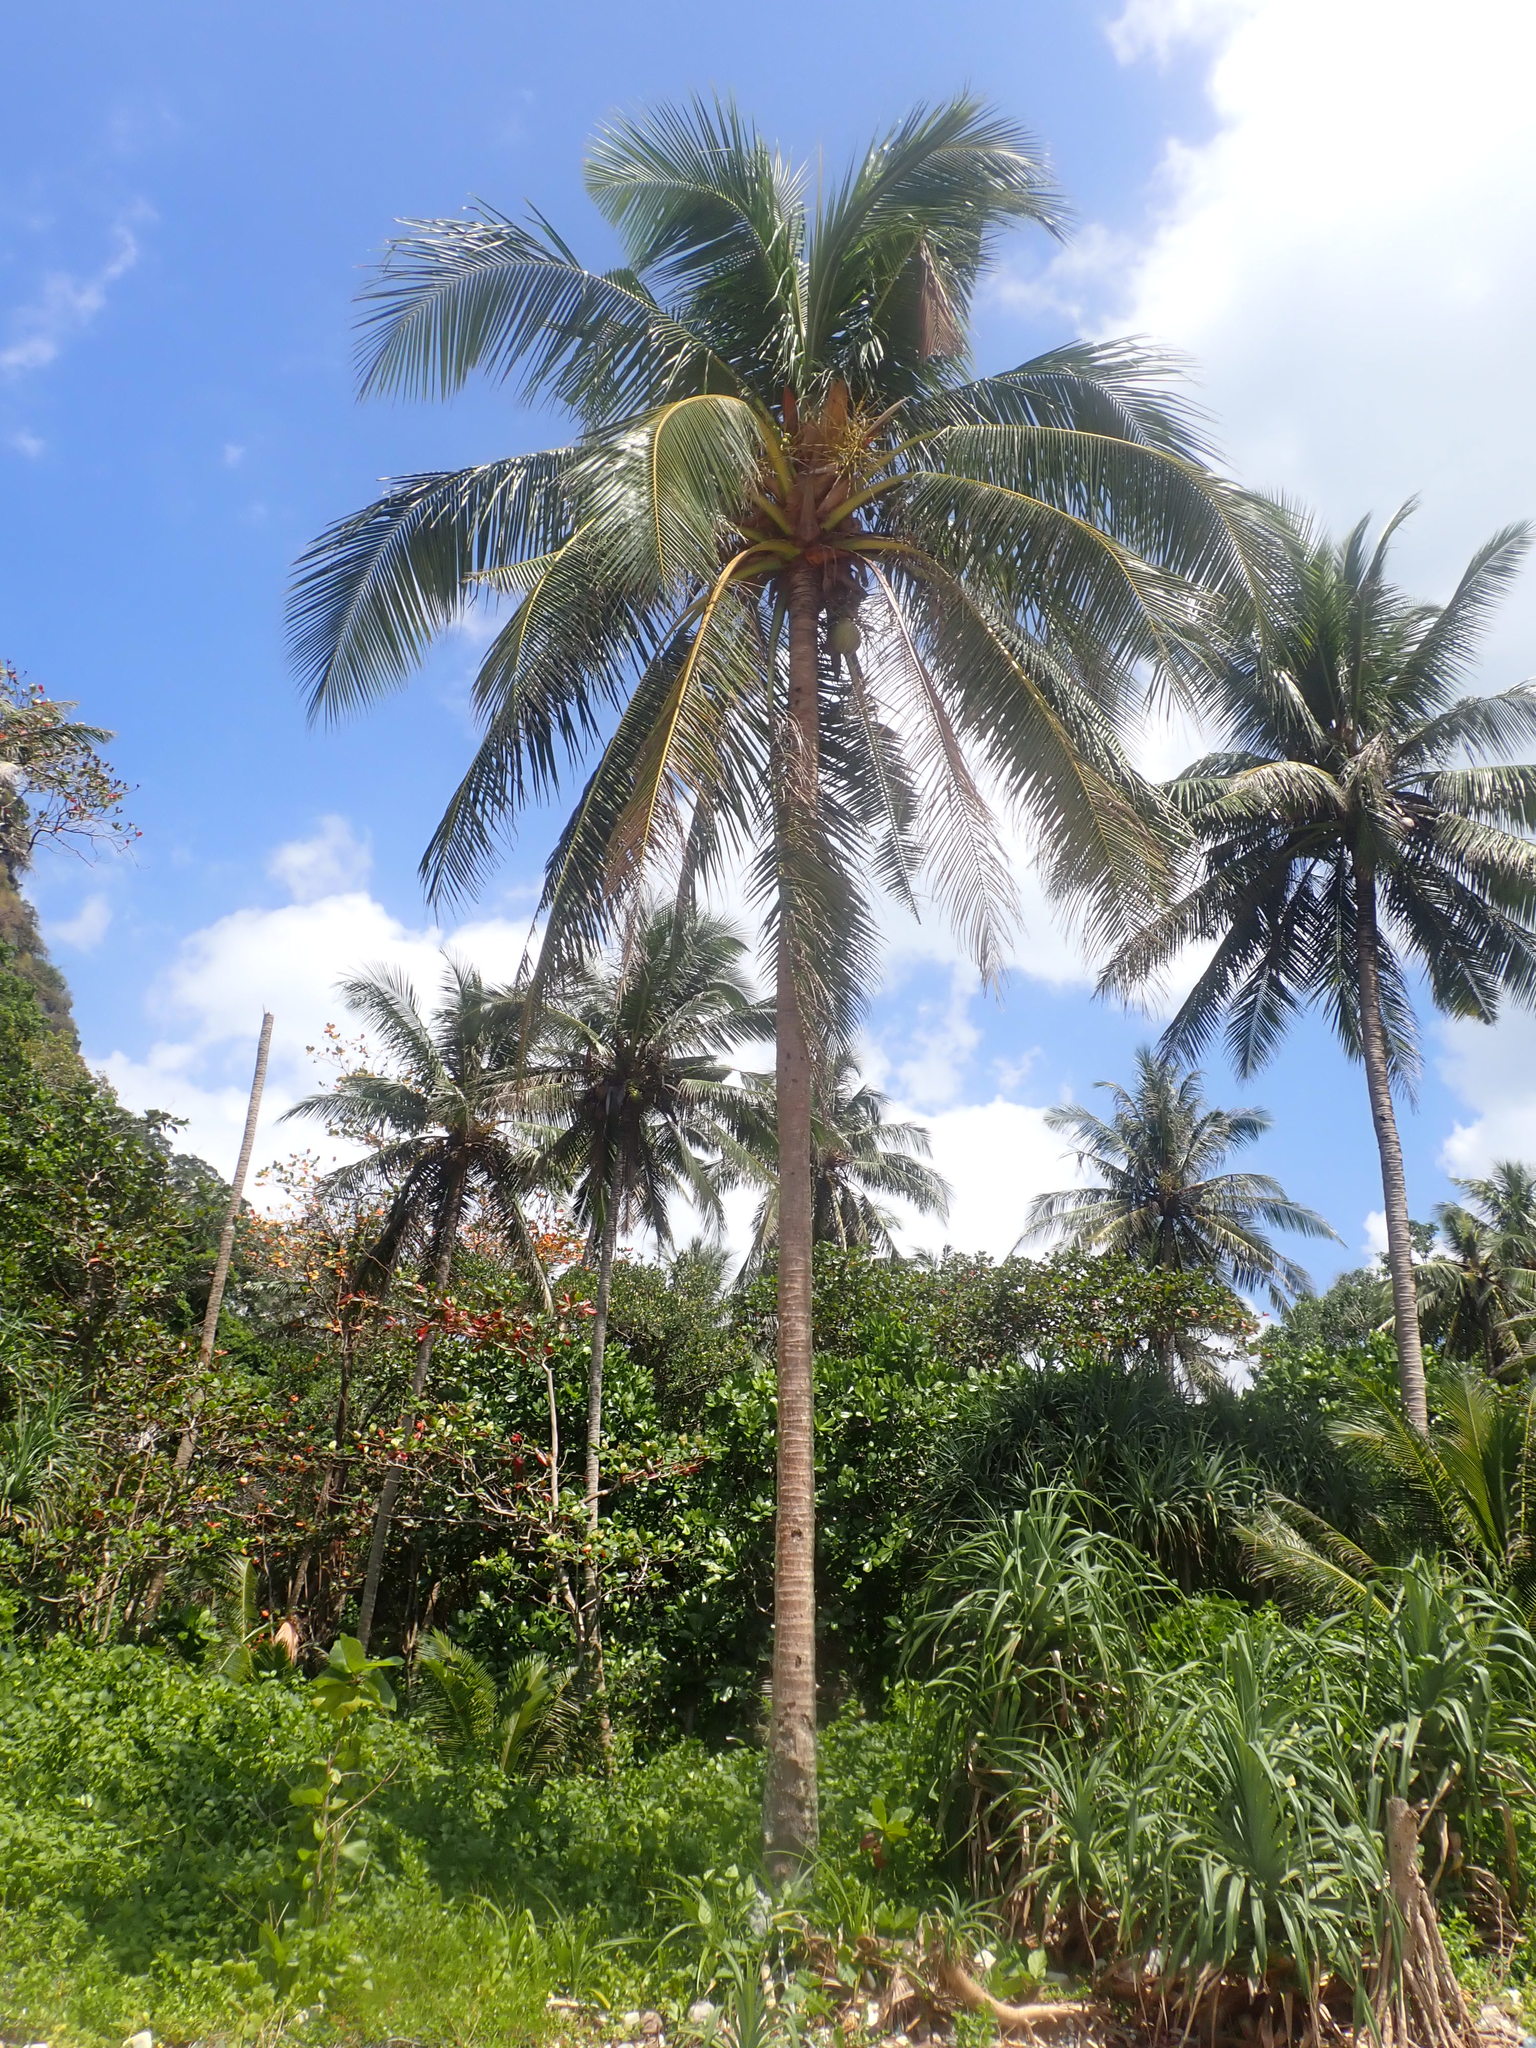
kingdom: Plantae
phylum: Tracheophyta
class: Liliopsida
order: Arecales
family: Arecaceae
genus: Cocos
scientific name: Cocos nucifera
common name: Coconut palm
